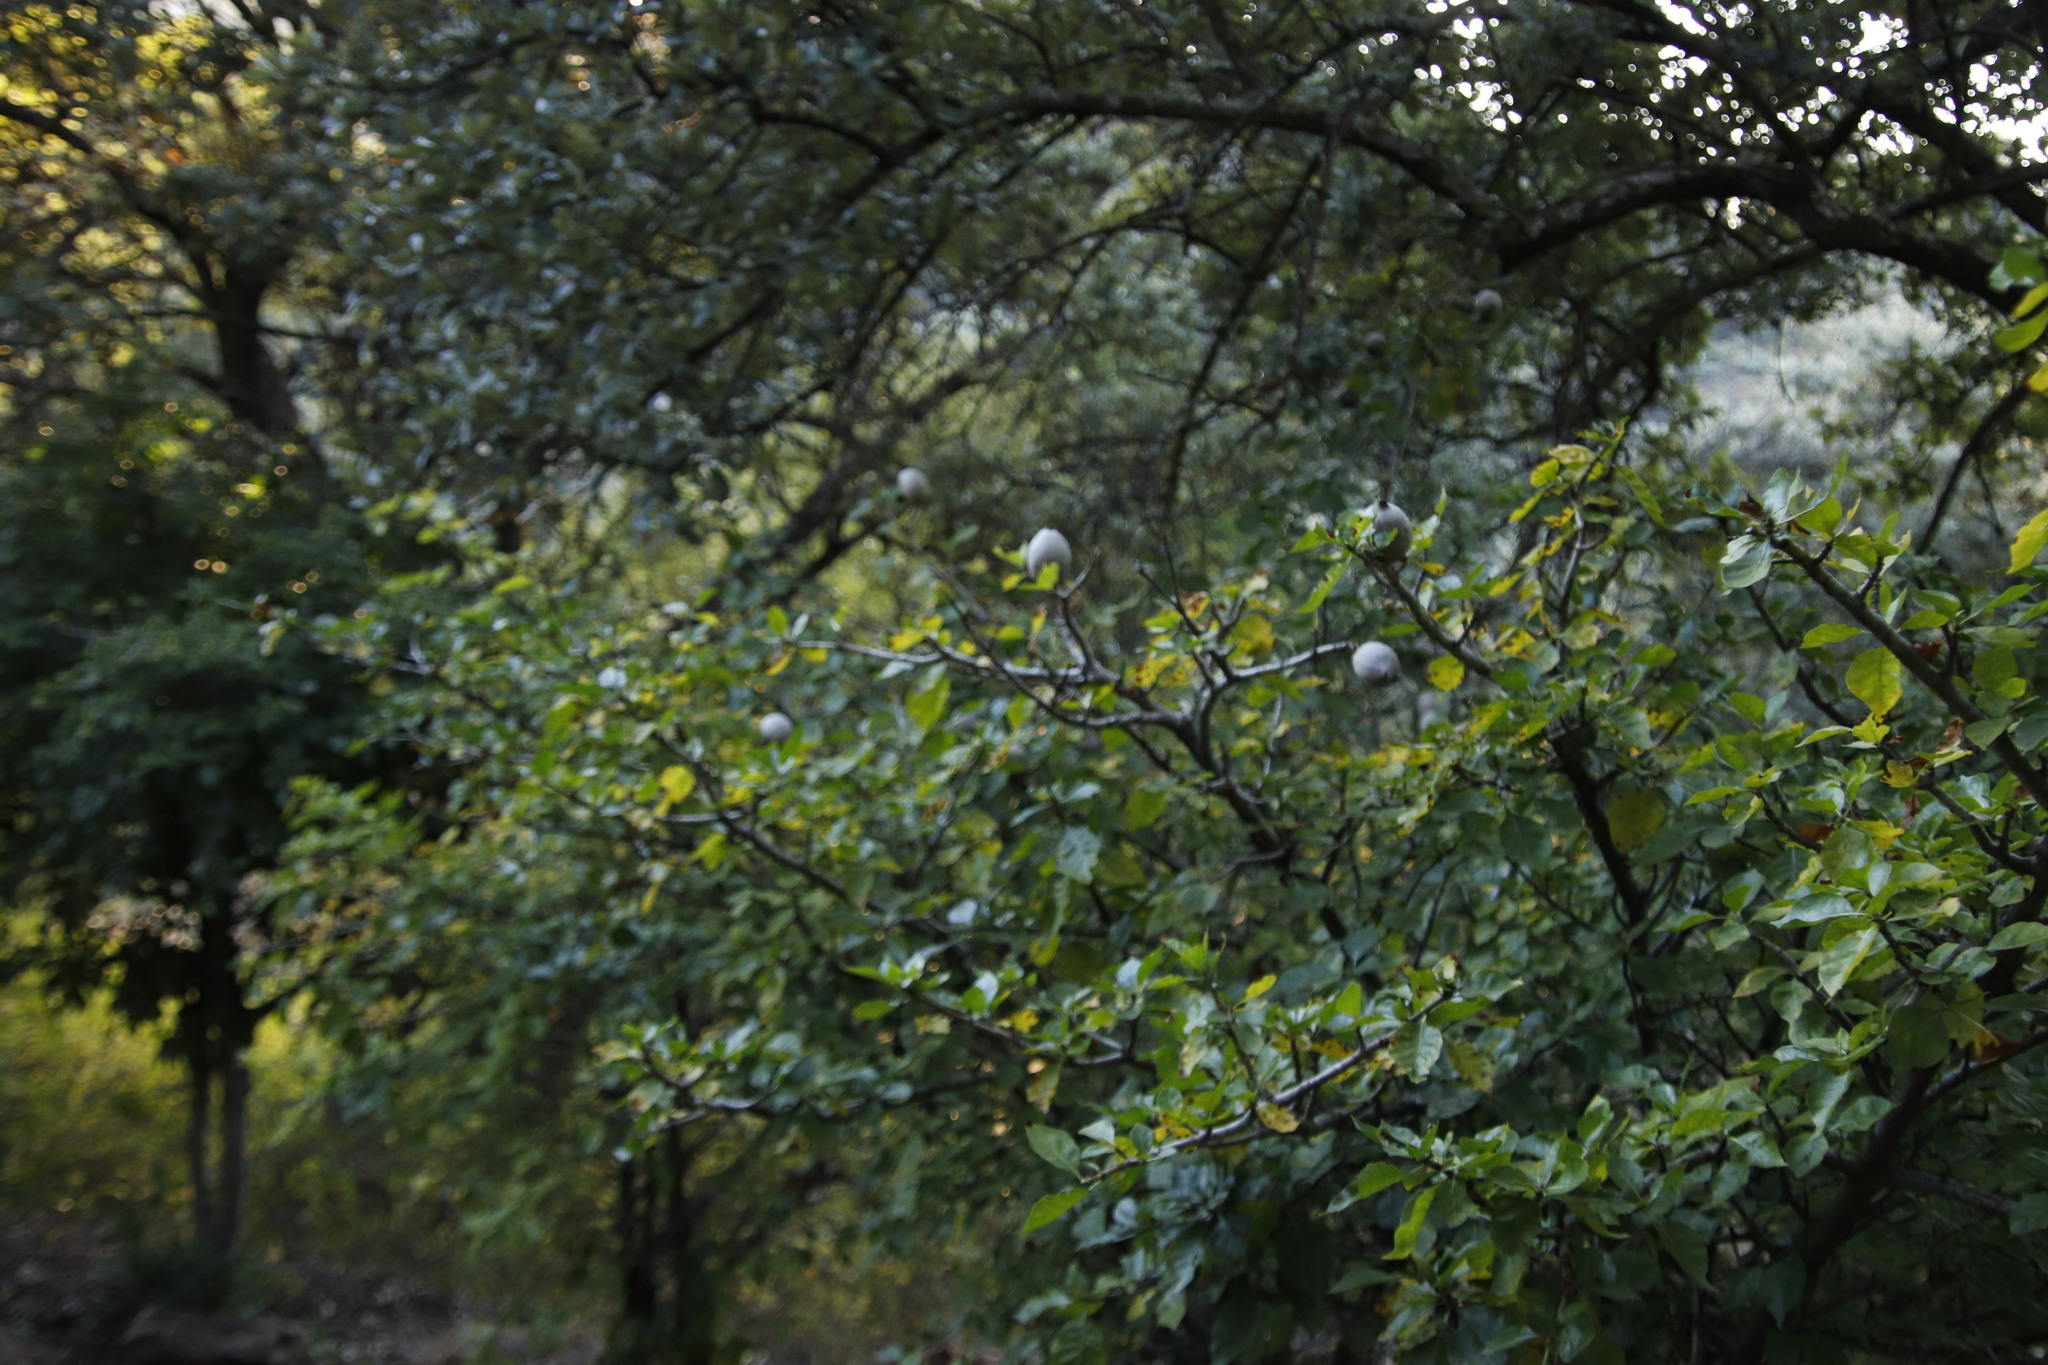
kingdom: Plantae
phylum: Tracheophyta
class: Magnoliopsida
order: Gentianales
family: Rubiaceae
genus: Rothmannia
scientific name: Rothmannia capensis
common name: Cape gardenia
